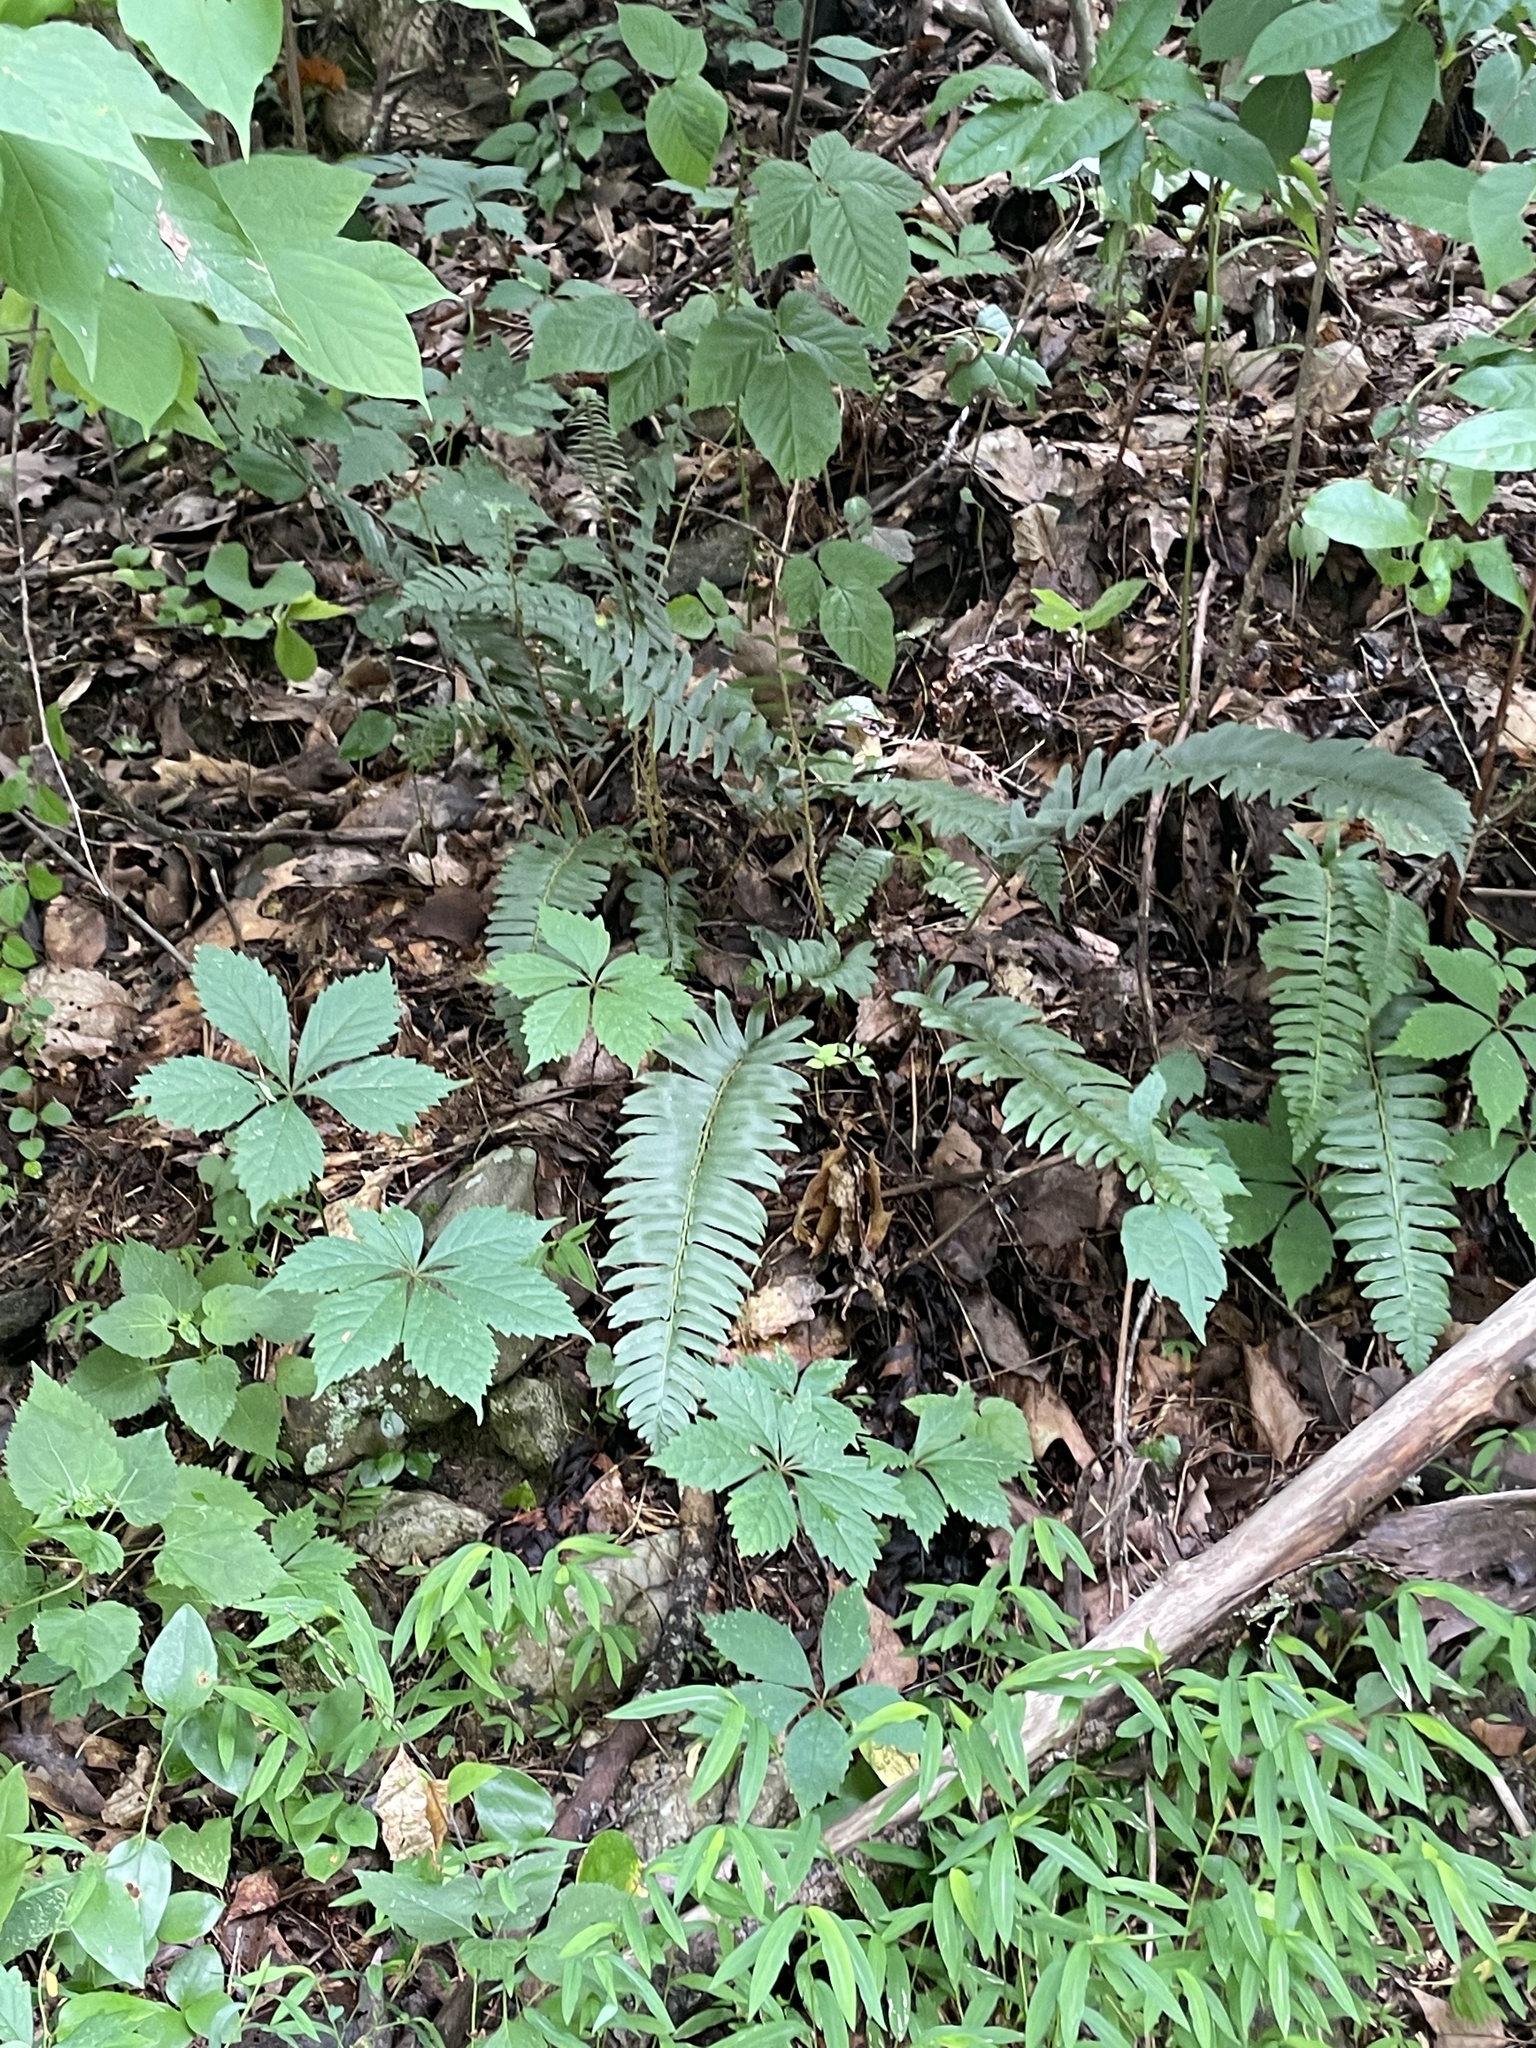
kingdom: Plantae
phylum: Tracheophyta
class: Polypodiopsida
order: Polypodiales
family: Dryopteridaceae
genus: Polystichum
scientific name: Polystichum acrostichoides
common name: Christmas fern
